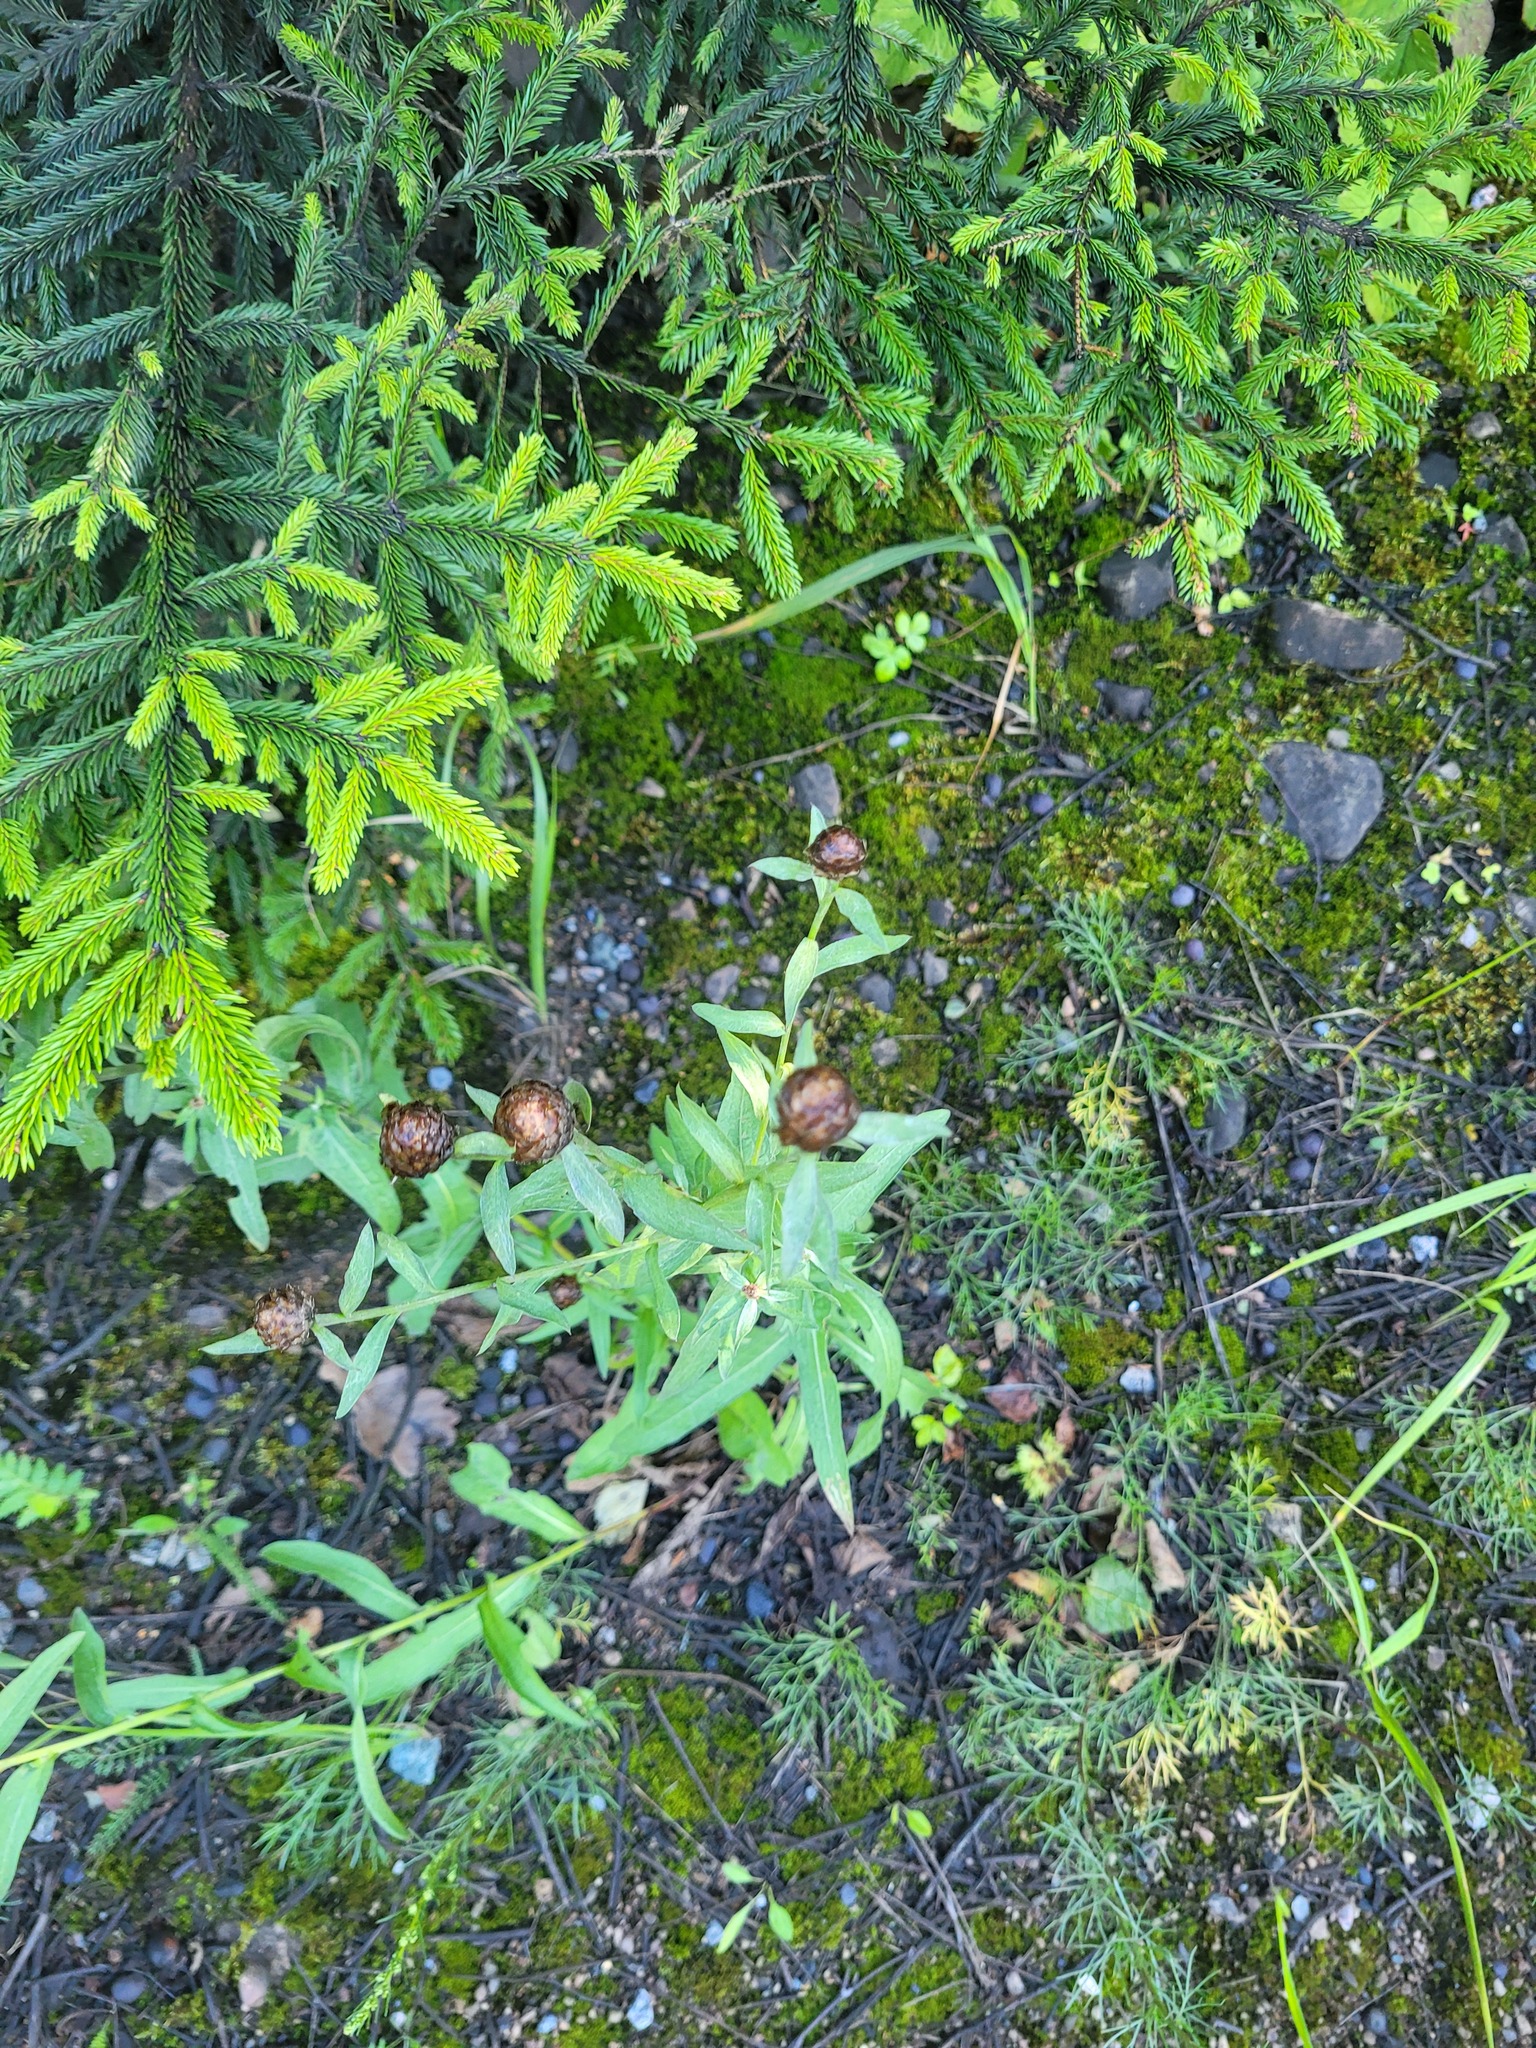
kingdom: Plantae
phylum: Tracheophyta
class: Magnoliopsida
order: Asterales
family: Asteraceae
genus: Centaurea
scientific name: Centaurea jacea
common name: Brown knapweed
